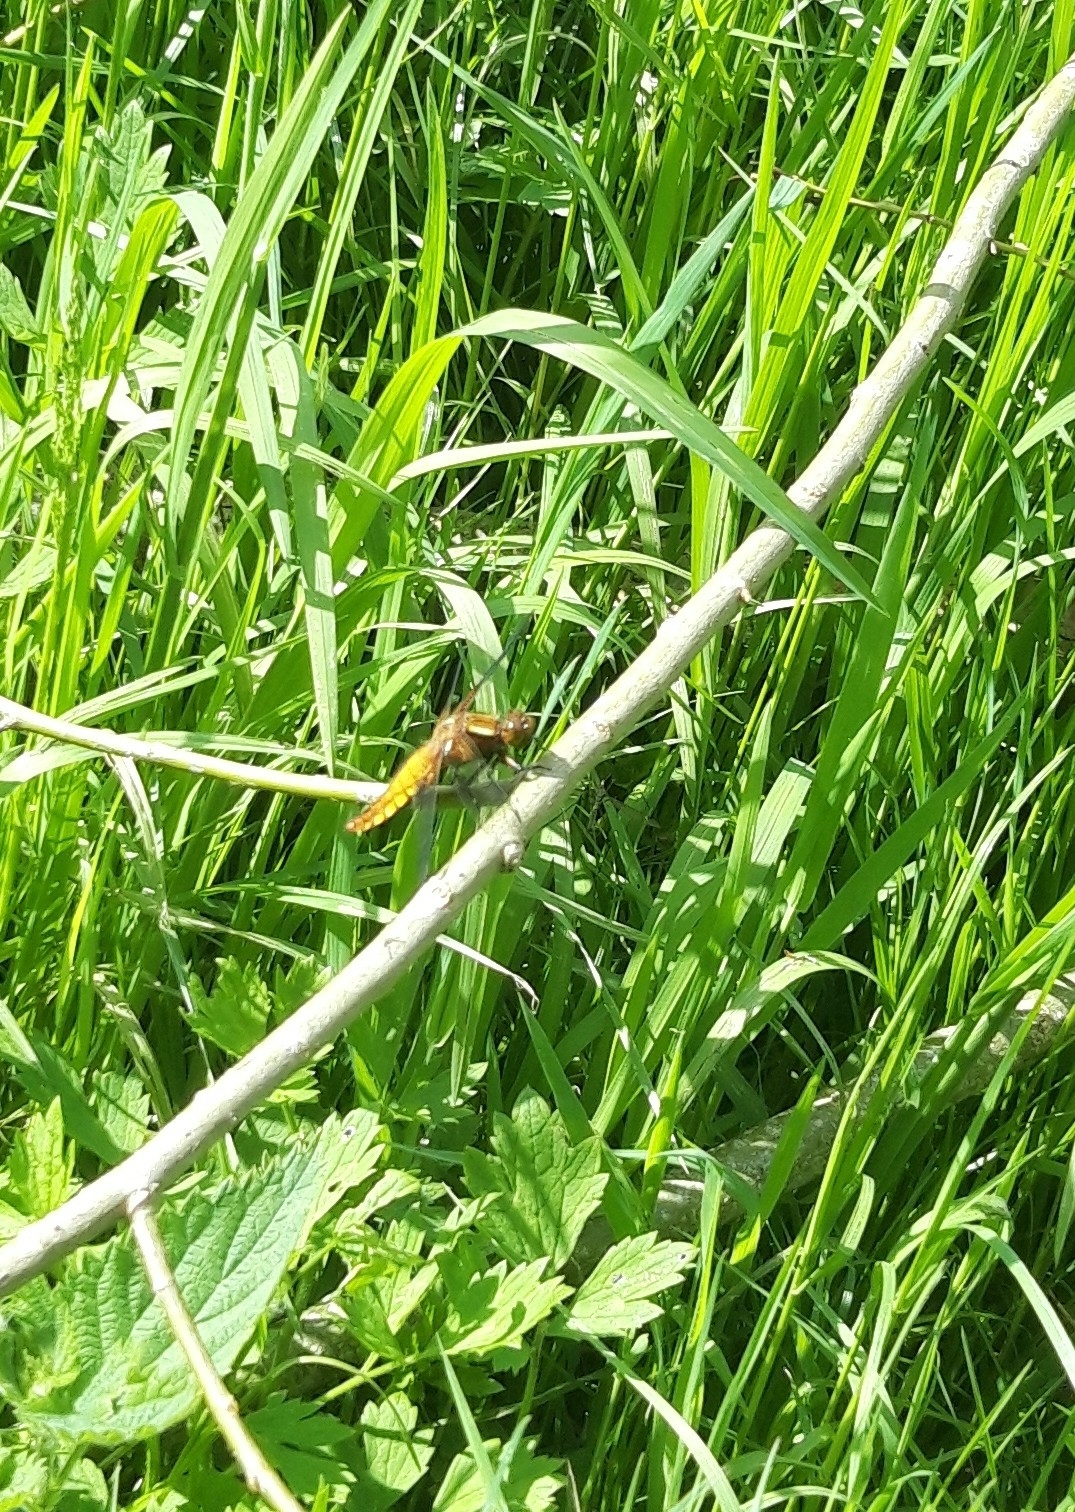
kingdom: Animalia
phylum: Arthropoda
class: Insecta
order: Odonata
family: Libellulidae
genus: Libellula
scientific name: Libellula depressa
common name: Broad-bodied chaser
